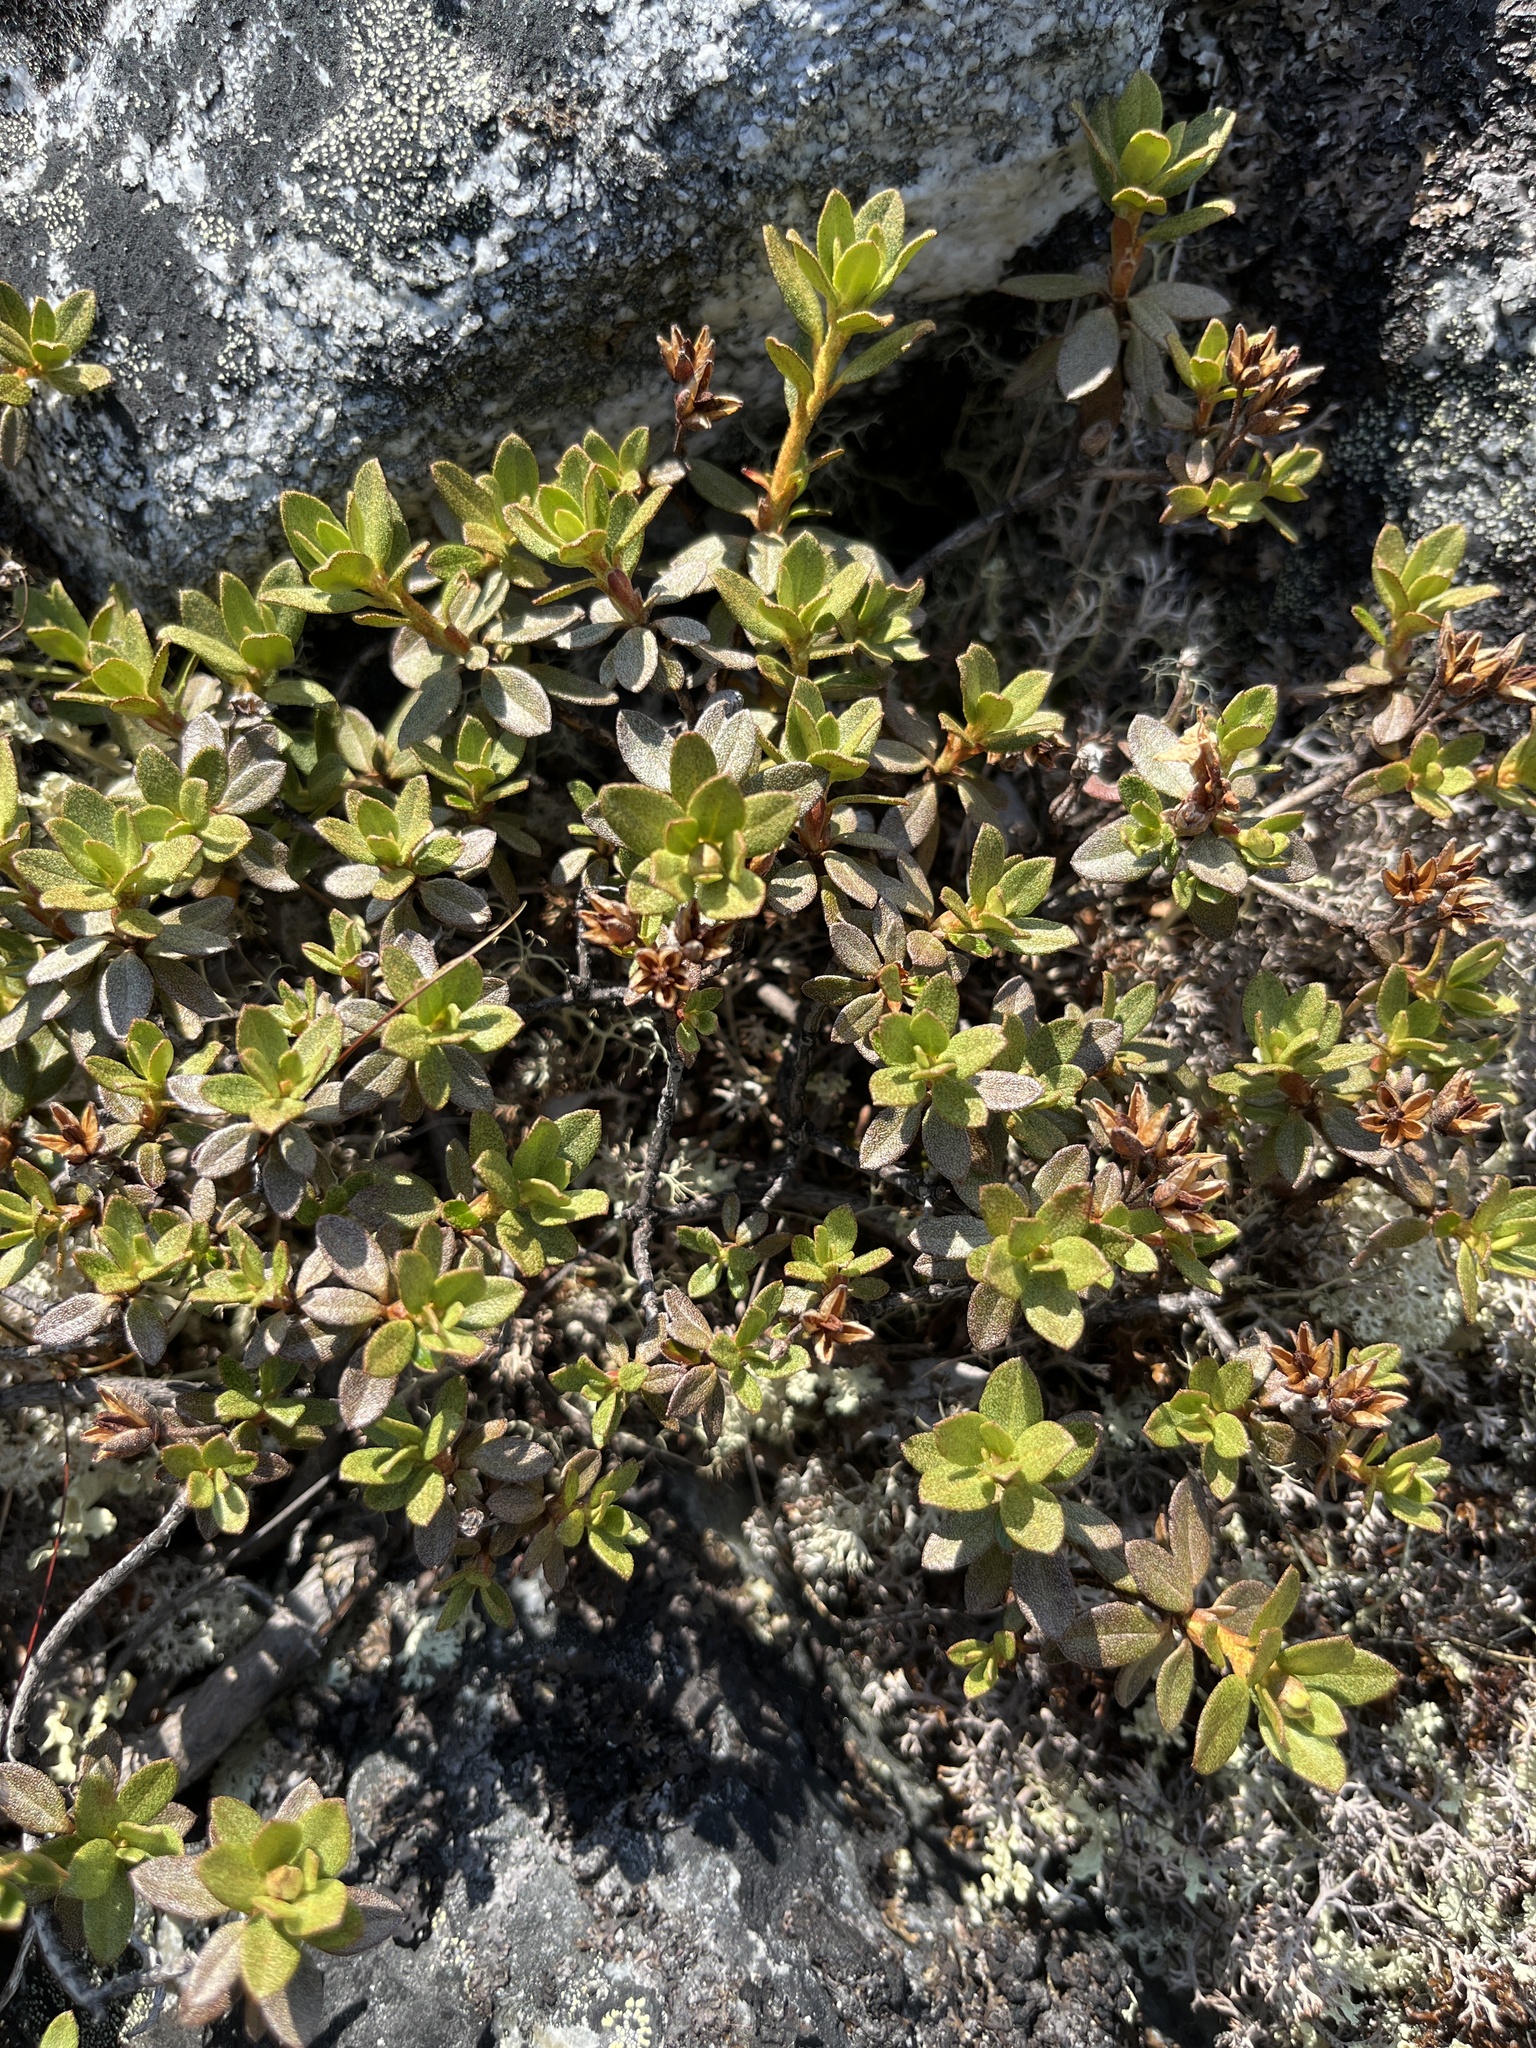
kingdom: Plantae
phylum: Tracheophyta
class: Magnoliopsida
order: Ericales
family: Ericaceae
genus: Rhododendron
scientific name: Rhododendron lapponicum
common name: Lapland rhododendron
